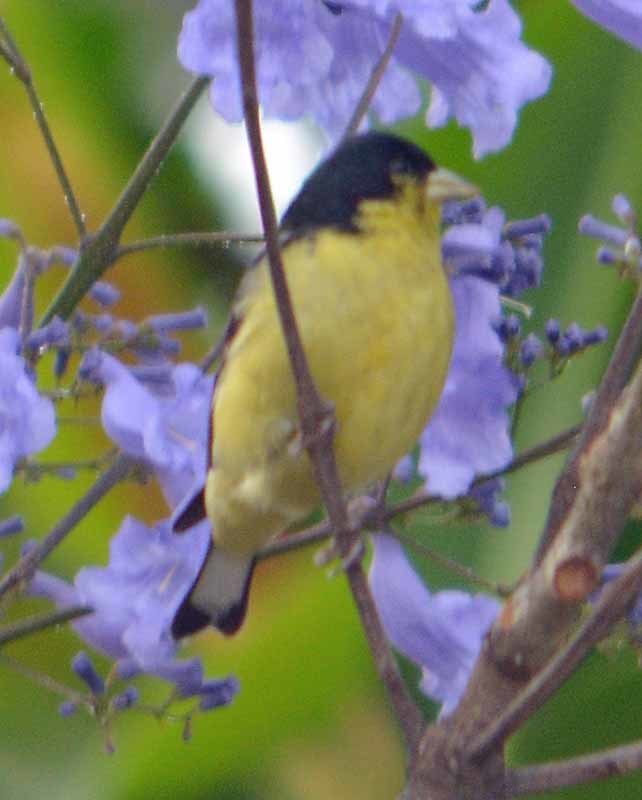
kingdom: Animalia
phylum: Chordata
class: Aves
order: Passeriformes
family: Fringillidae
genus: Spinus
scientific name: Spinus psaltria
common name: Lesser goldfinch
